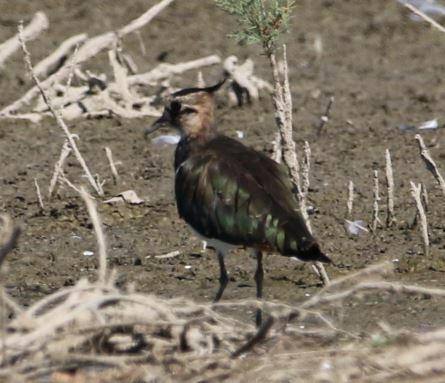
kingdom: Animalia
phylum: Chordata
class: Aves
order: Charadriiformes
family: Charadriidae
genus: Vanellus
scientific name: Vanellus vanellus
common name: Northern lapwing
